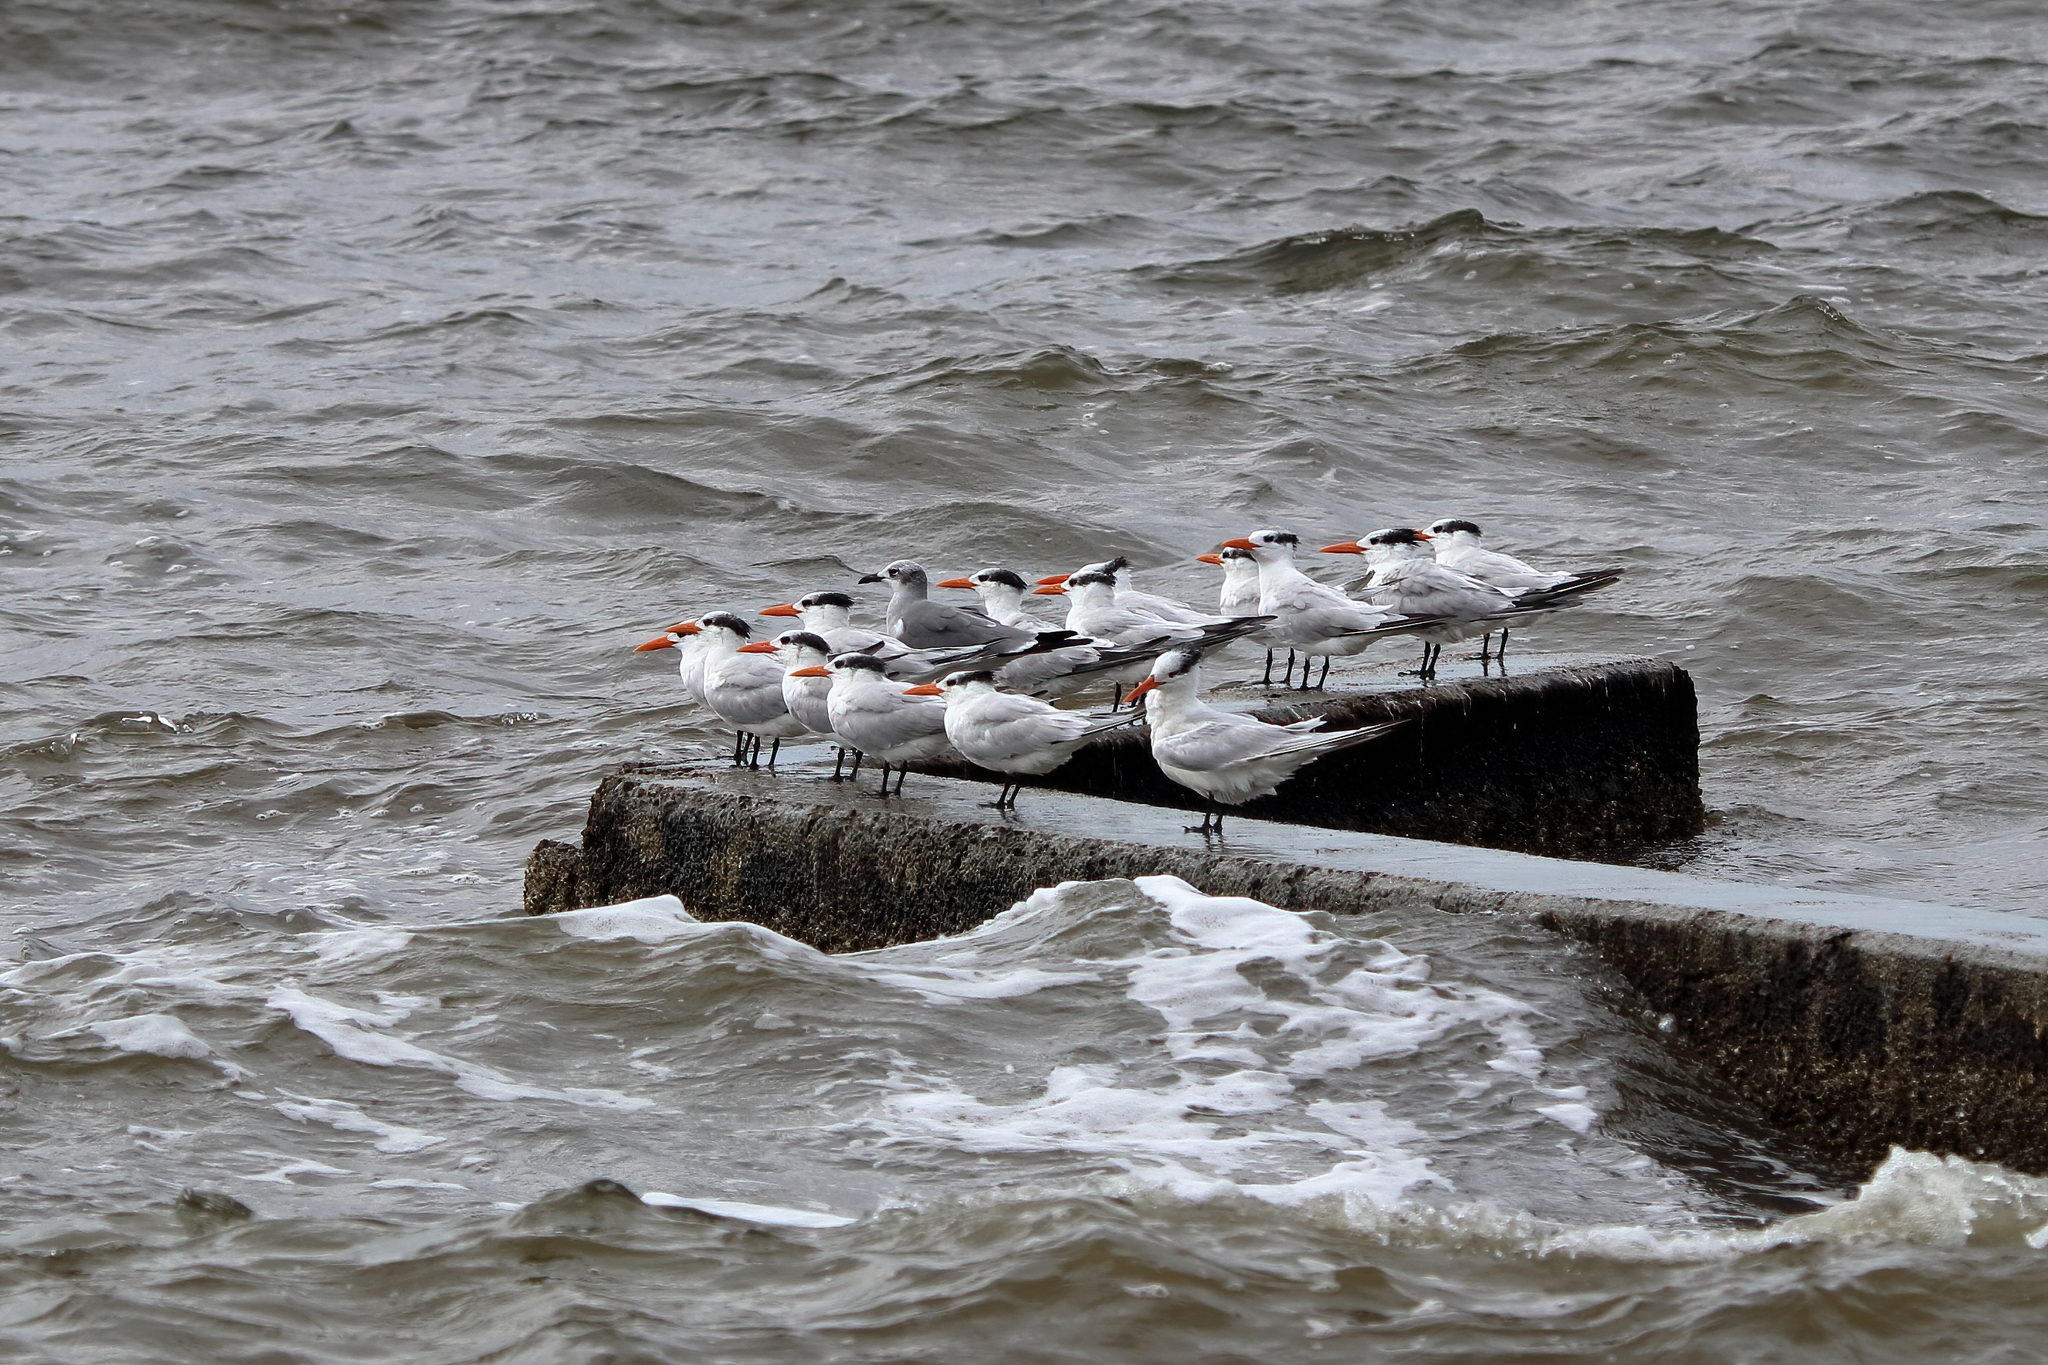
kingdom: Animalia
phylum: Chordata
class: Aves
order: Charadriiformes
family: Laridae
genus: Thalasseus
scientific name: Thalasseus maximus
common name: Royal tern
